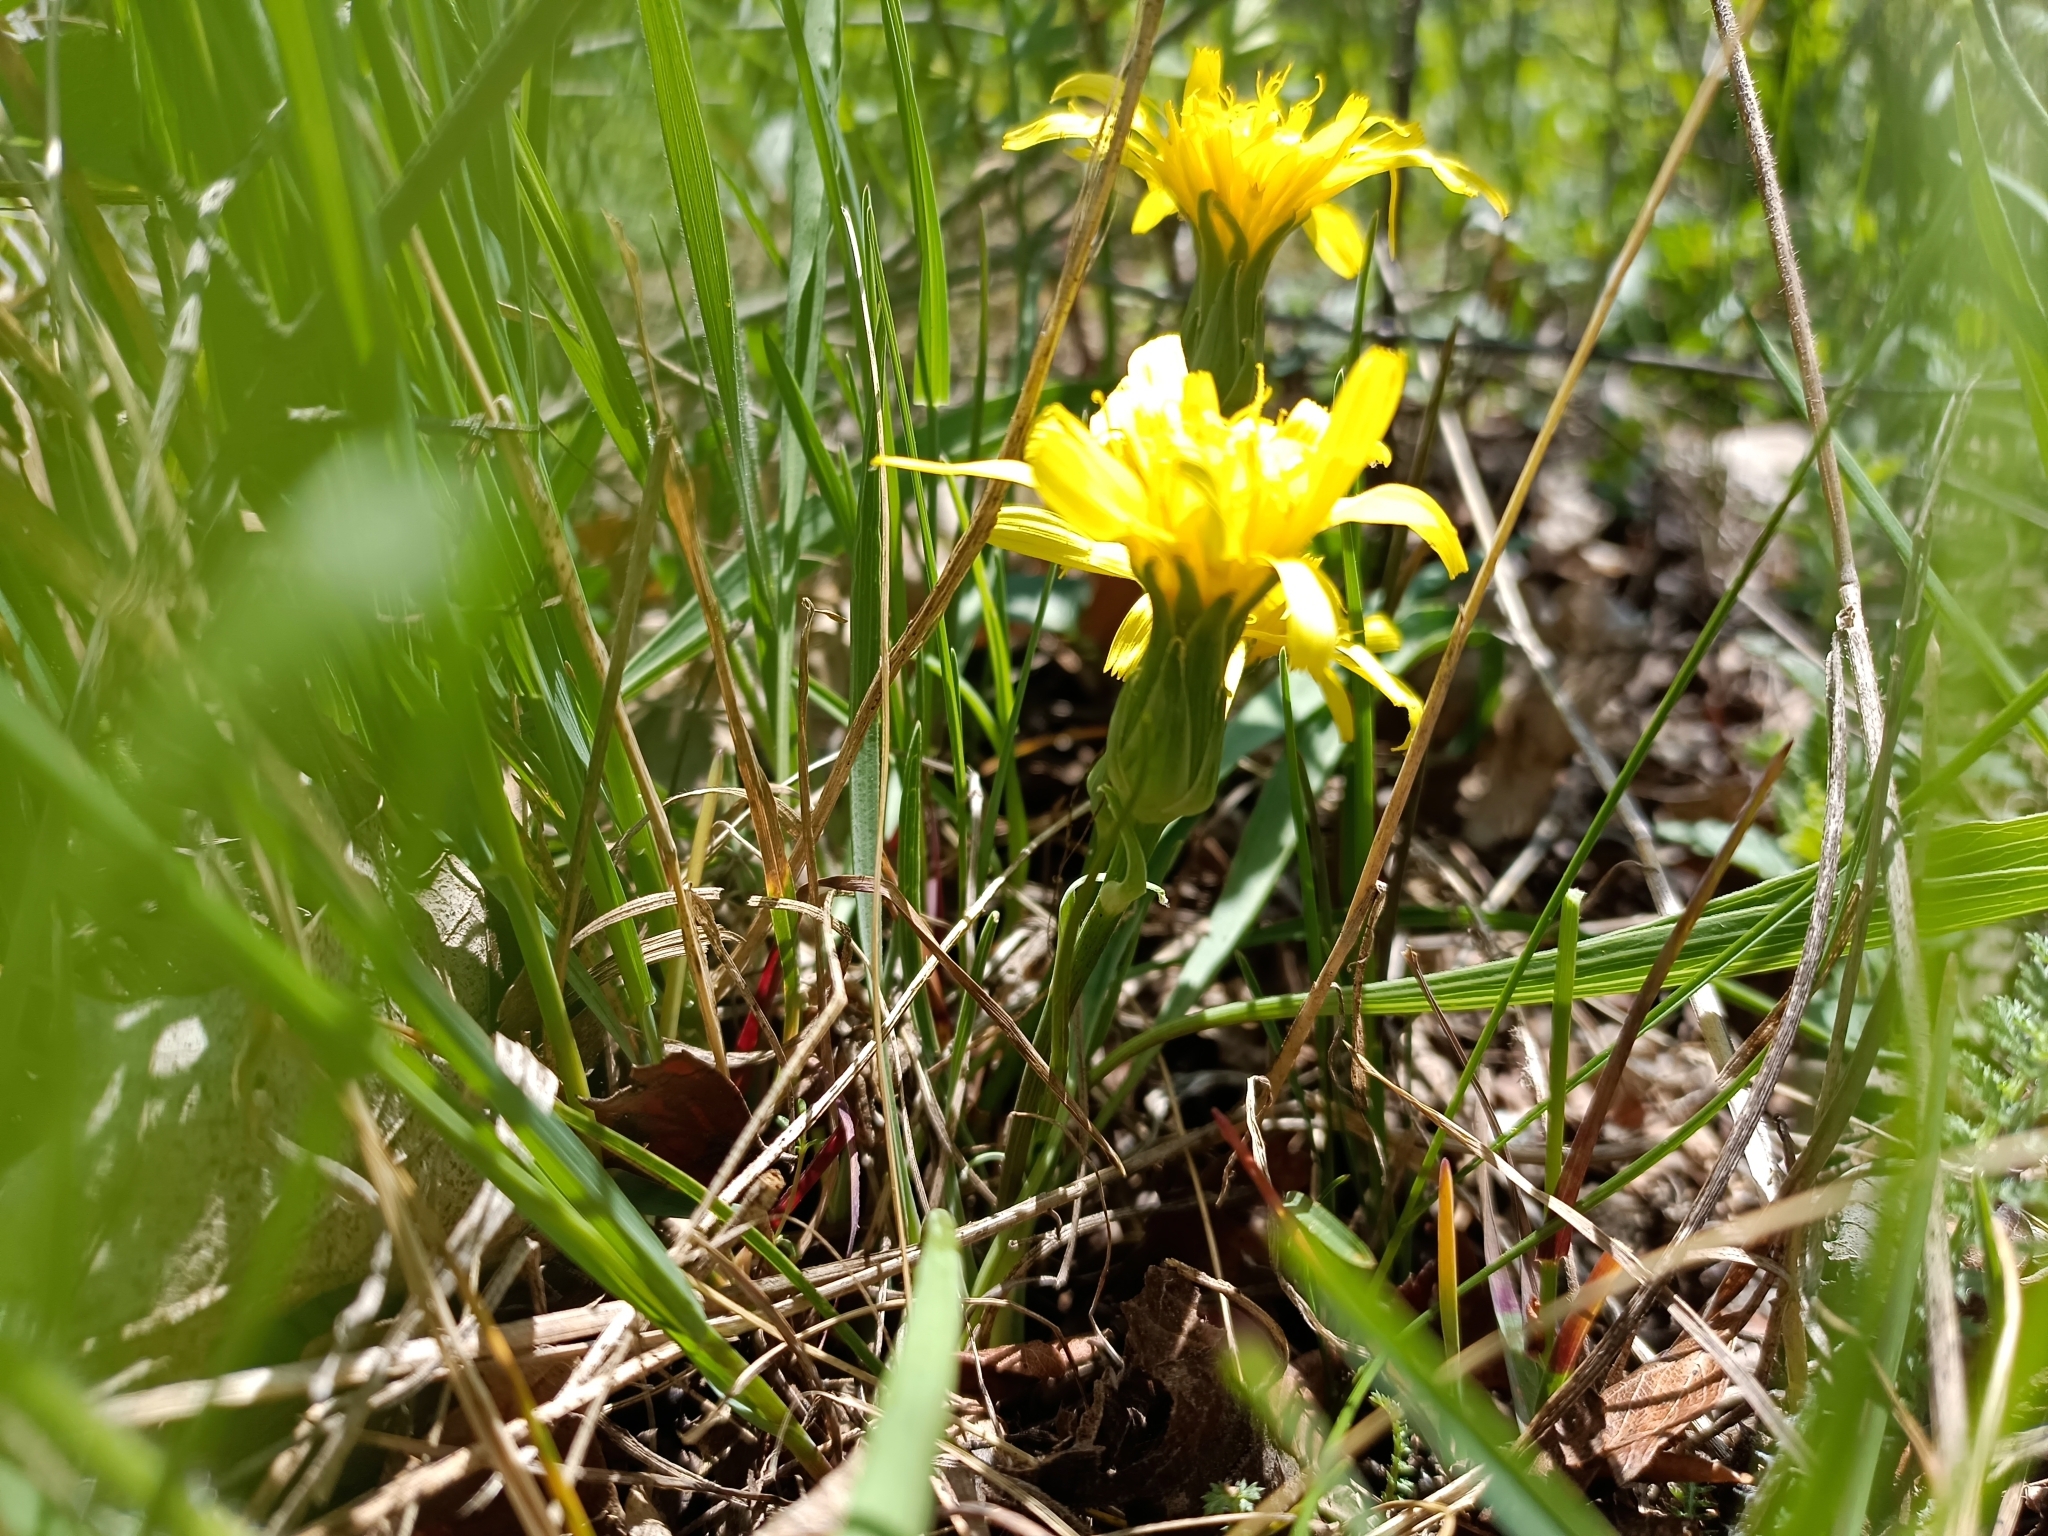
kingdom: Plantae
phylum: Tracheophyta
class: Magnoliopsida
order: Asterales
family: Asteraceae
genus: Takhtajaniantha
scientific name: Takhtajaniantha austriaca
